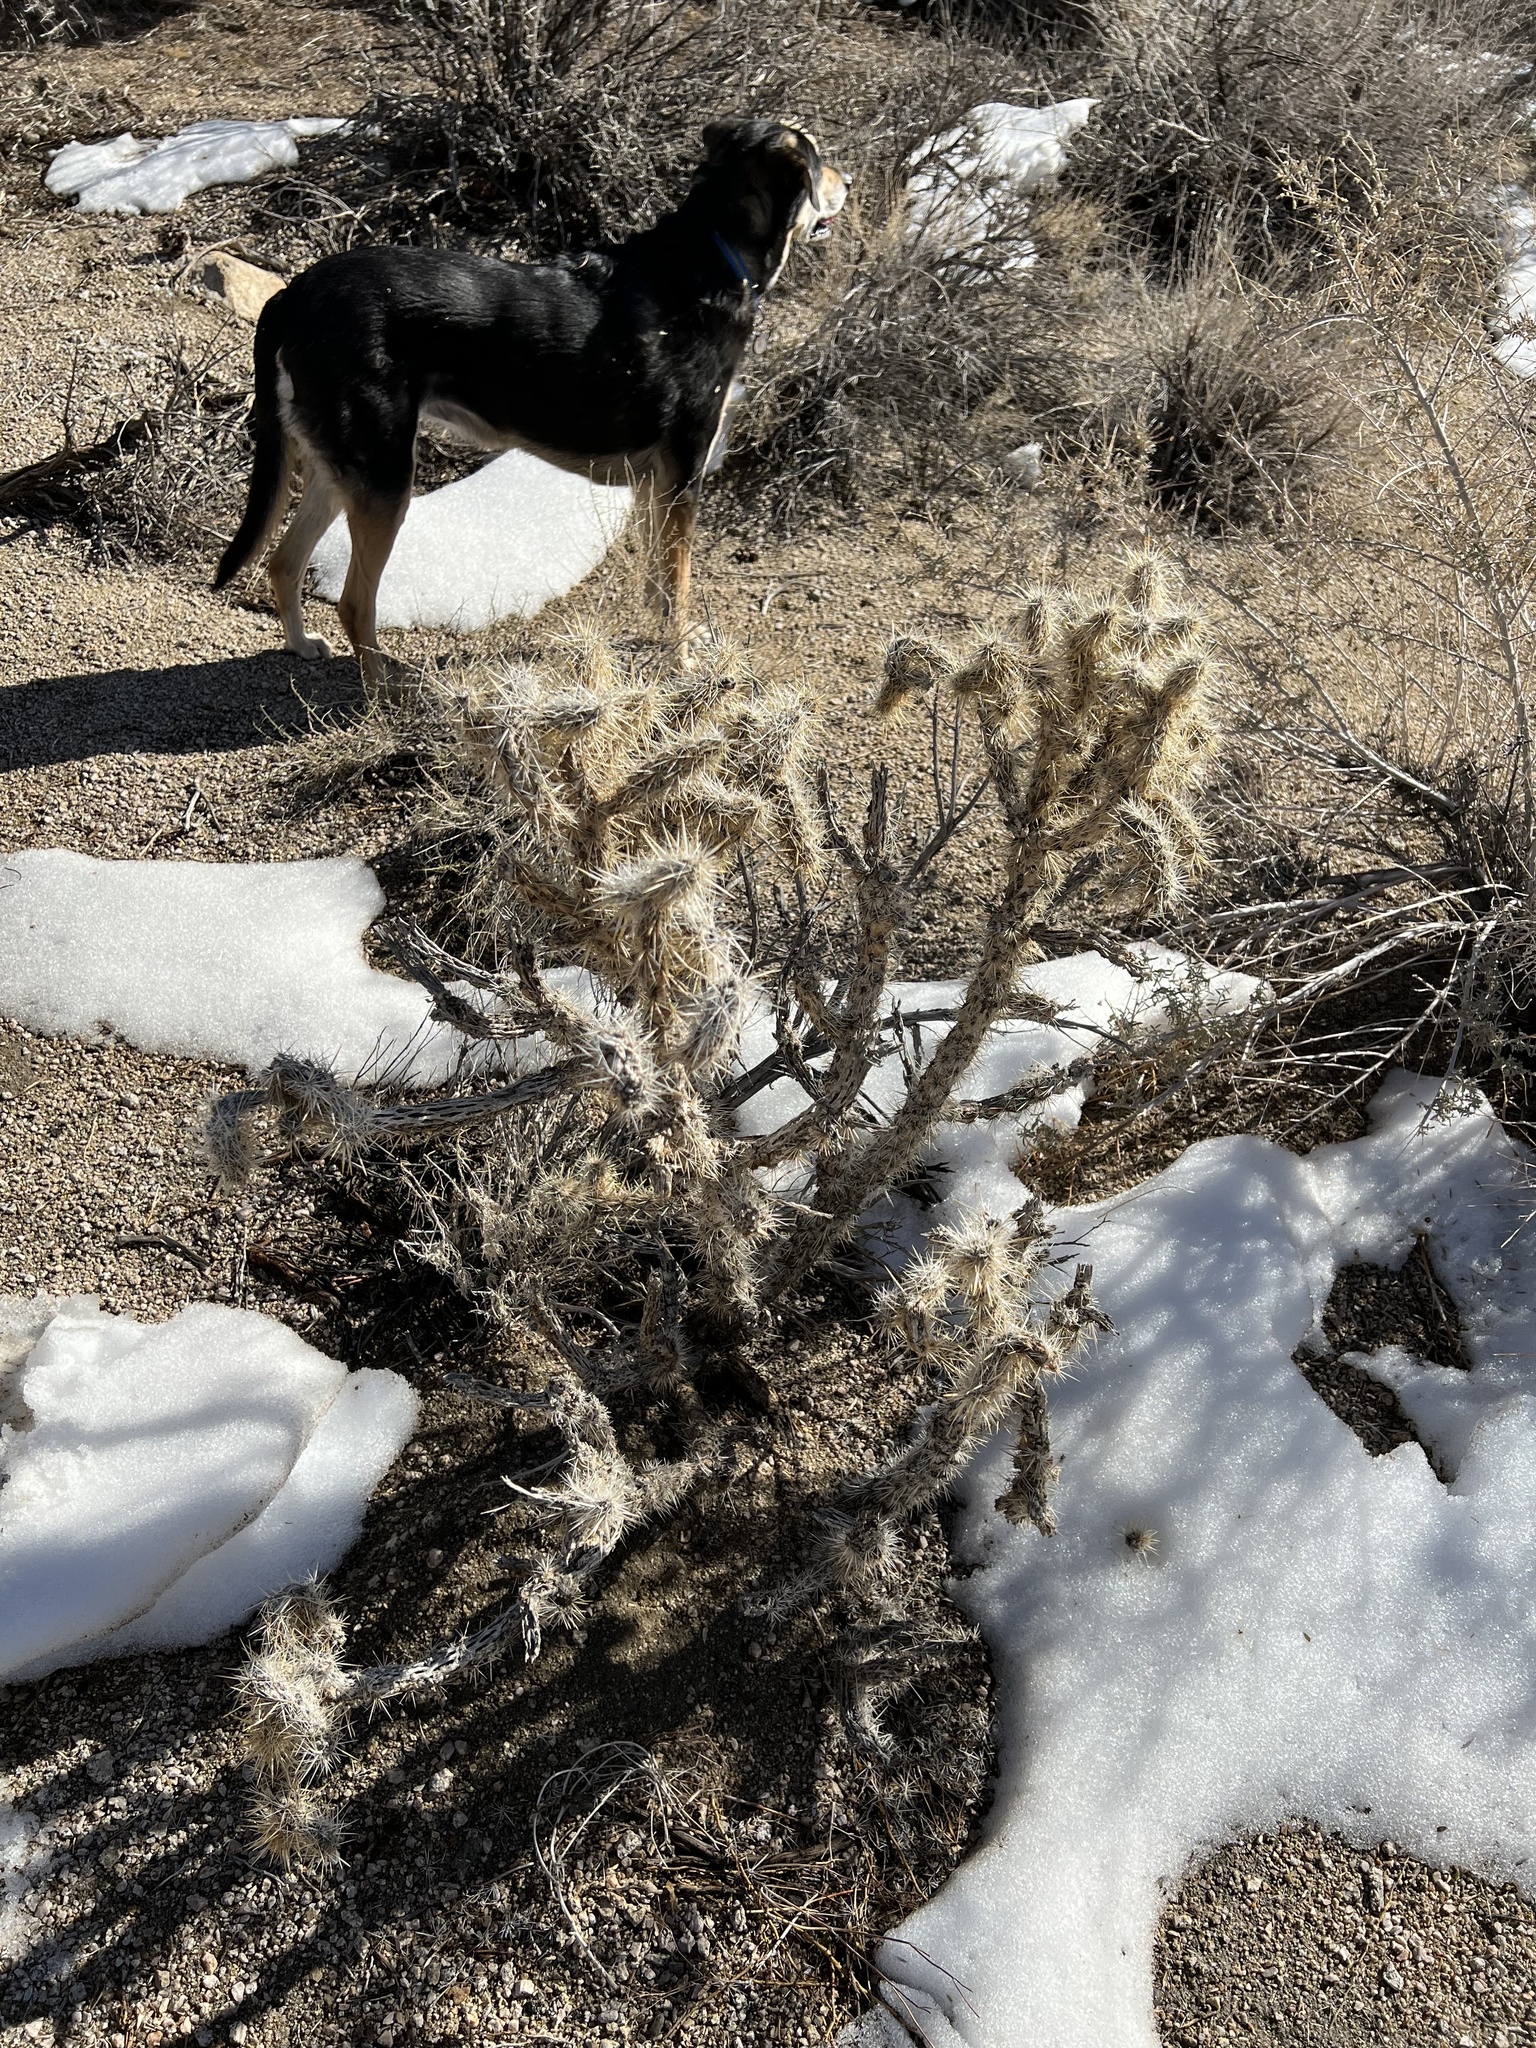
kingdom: Plantae
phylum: Tracheophyta
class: Magnoliopsida
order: Caryophyllales
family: Cactaceae
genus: Cylindropuntia
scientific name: Cylindropuntia echinocarpa
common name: Ground cholla
